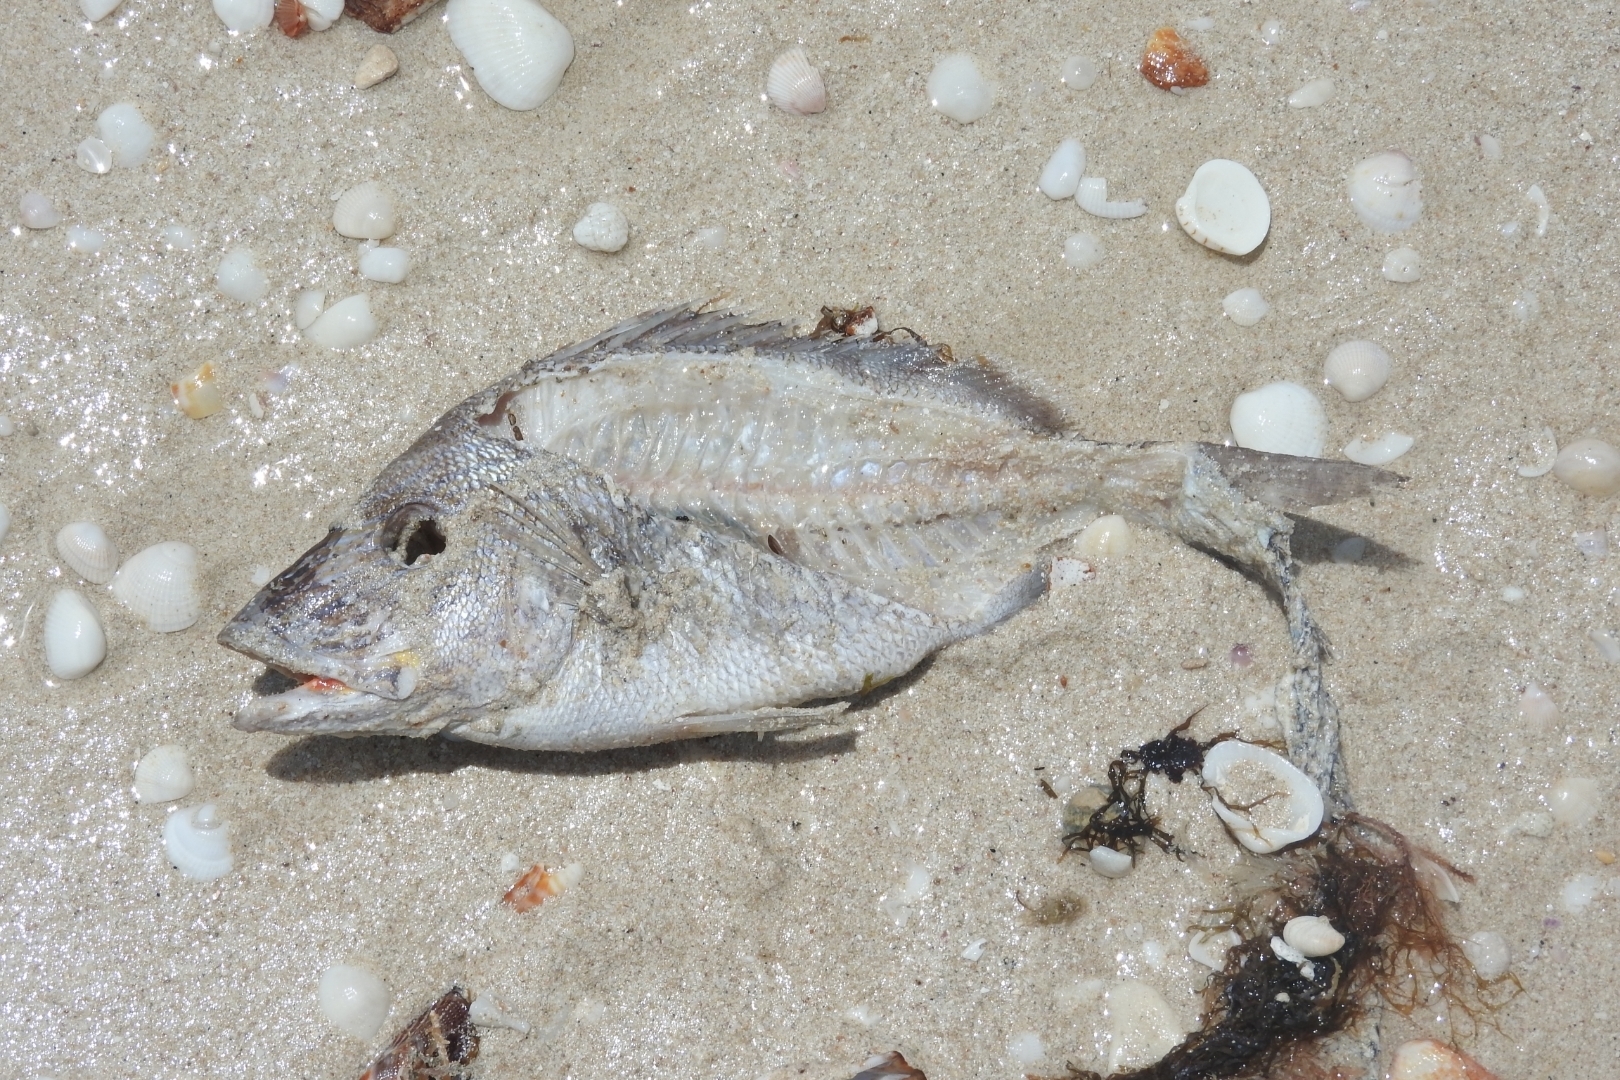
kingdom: Animalia
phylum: Chordata
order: Perciformes
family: Haemulidae
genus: Haemulon
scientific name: Haemulon plumierii
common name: White grunt
